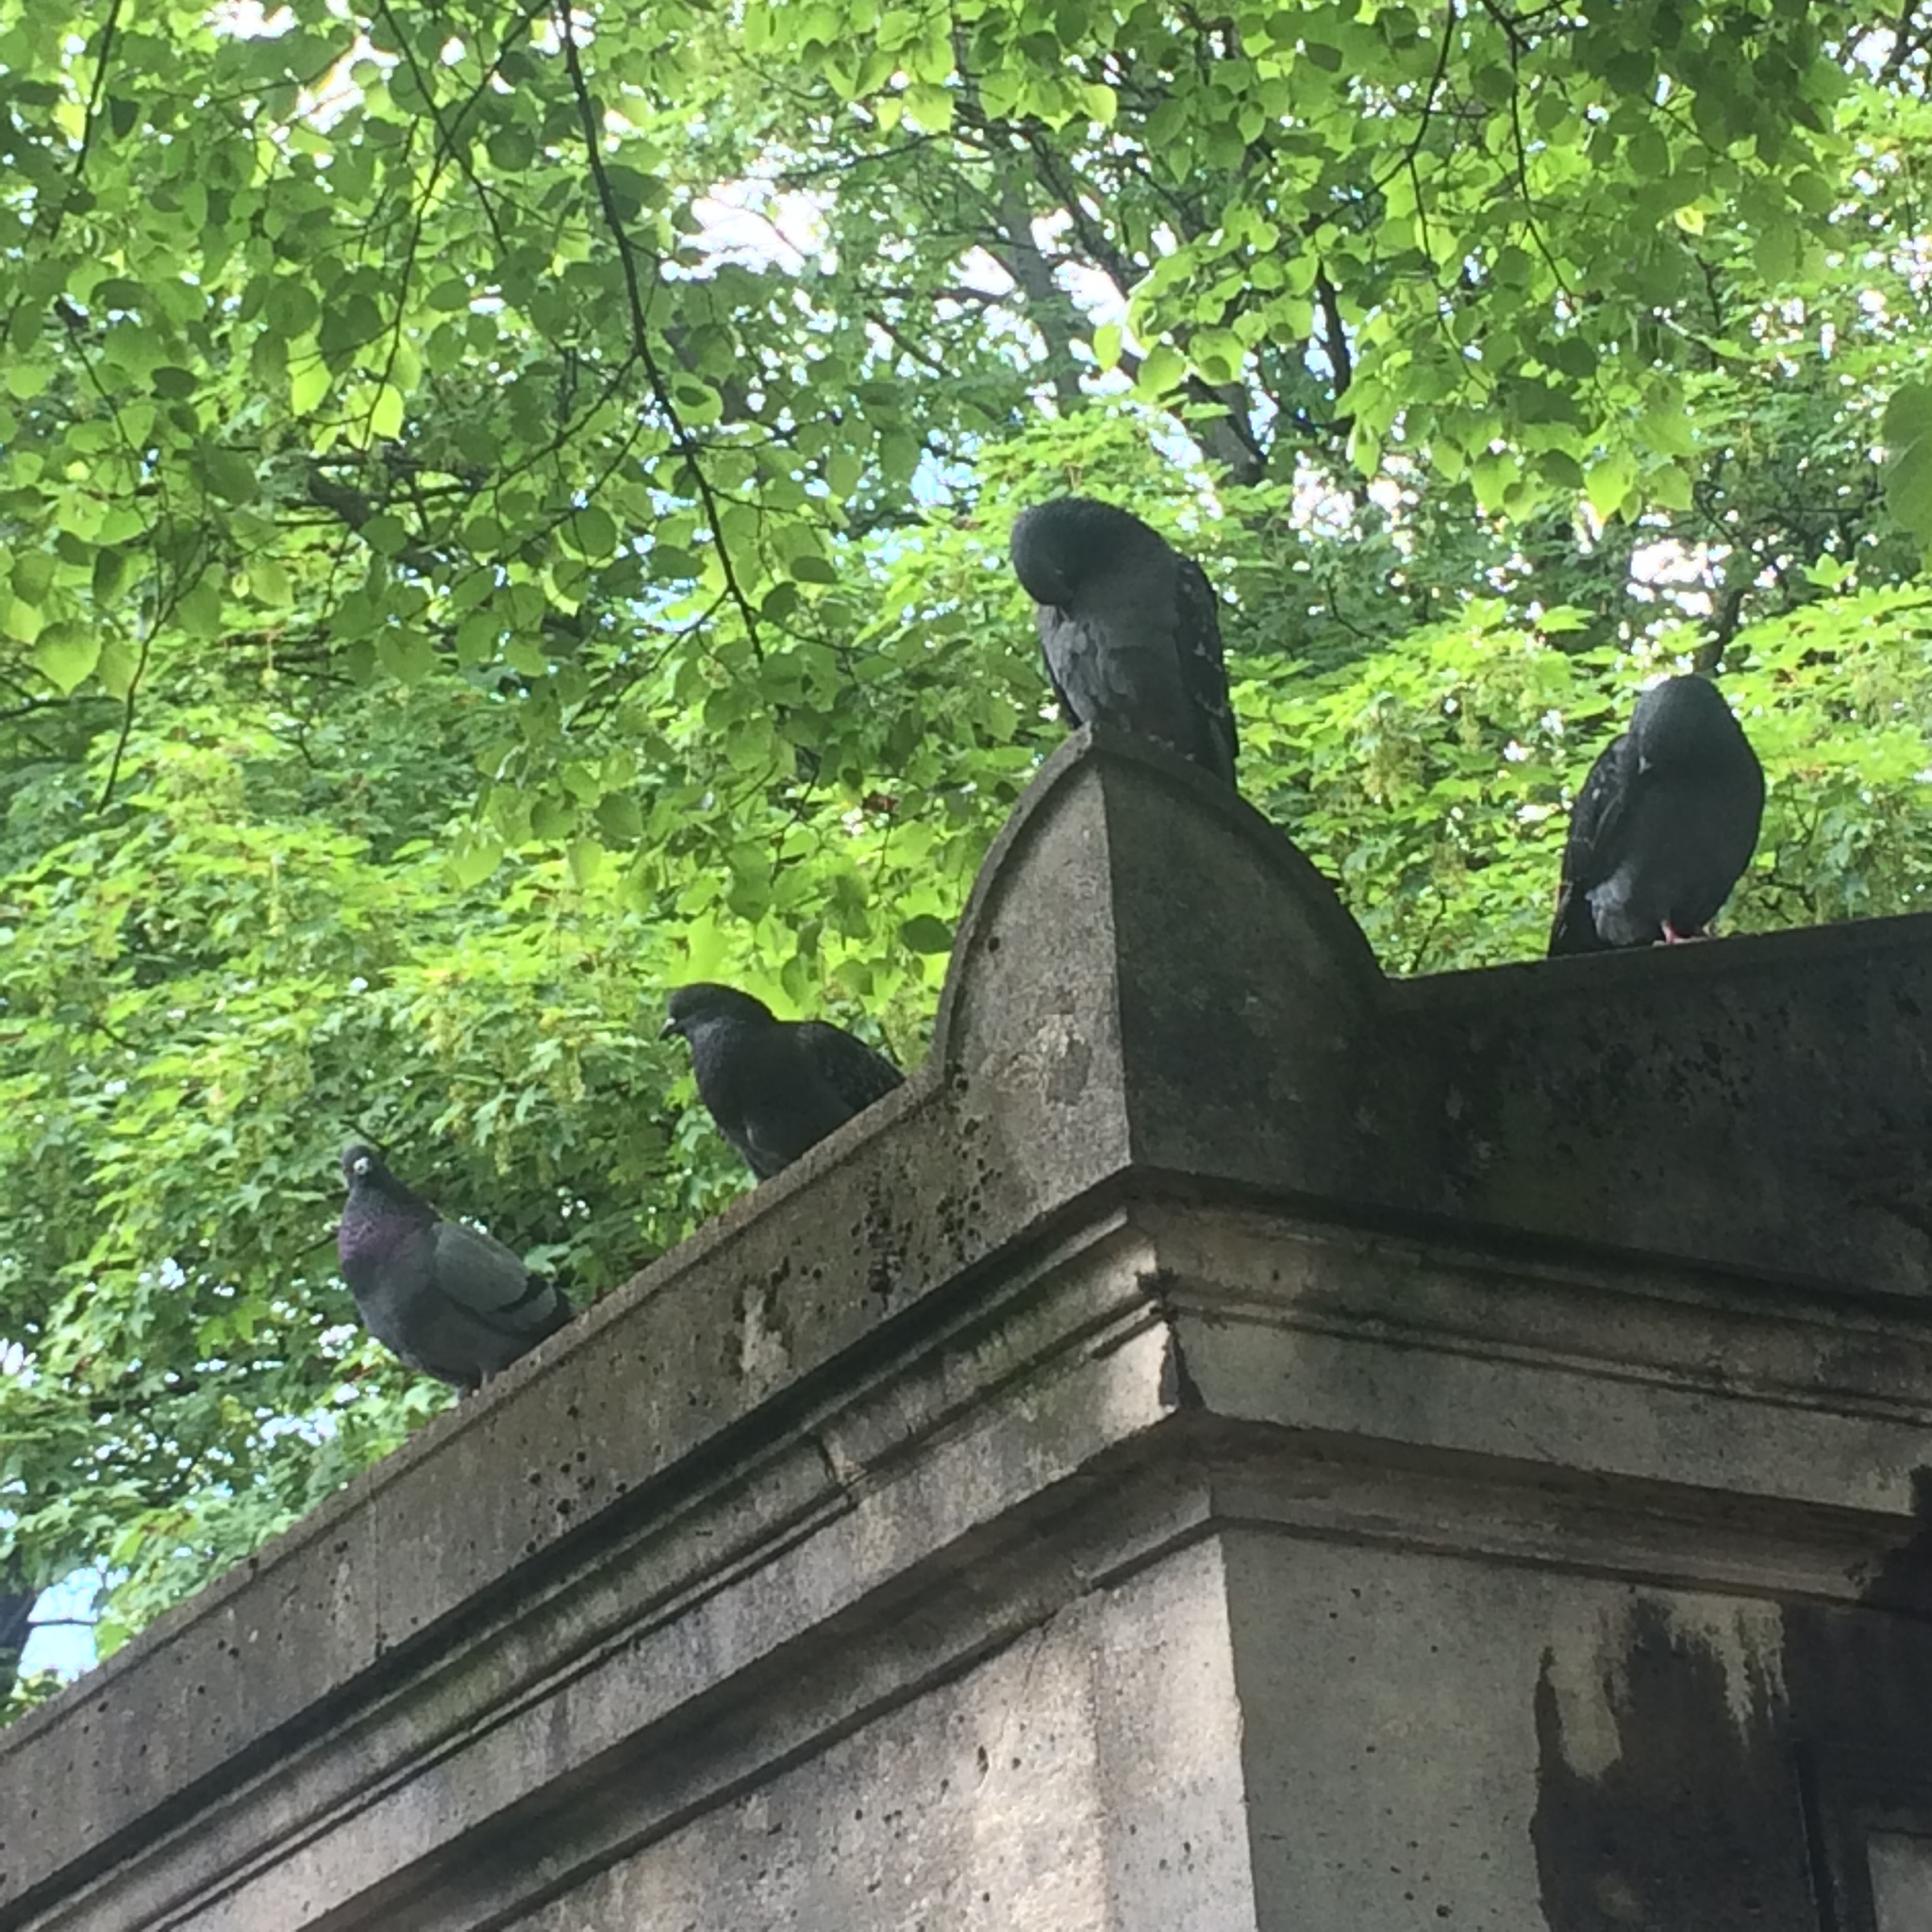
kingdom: Animalia
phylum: Chordata
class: Aves
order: Columbiformes
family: Columbidae
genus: Columba
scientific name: Columba livia
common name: Rock pigeon
